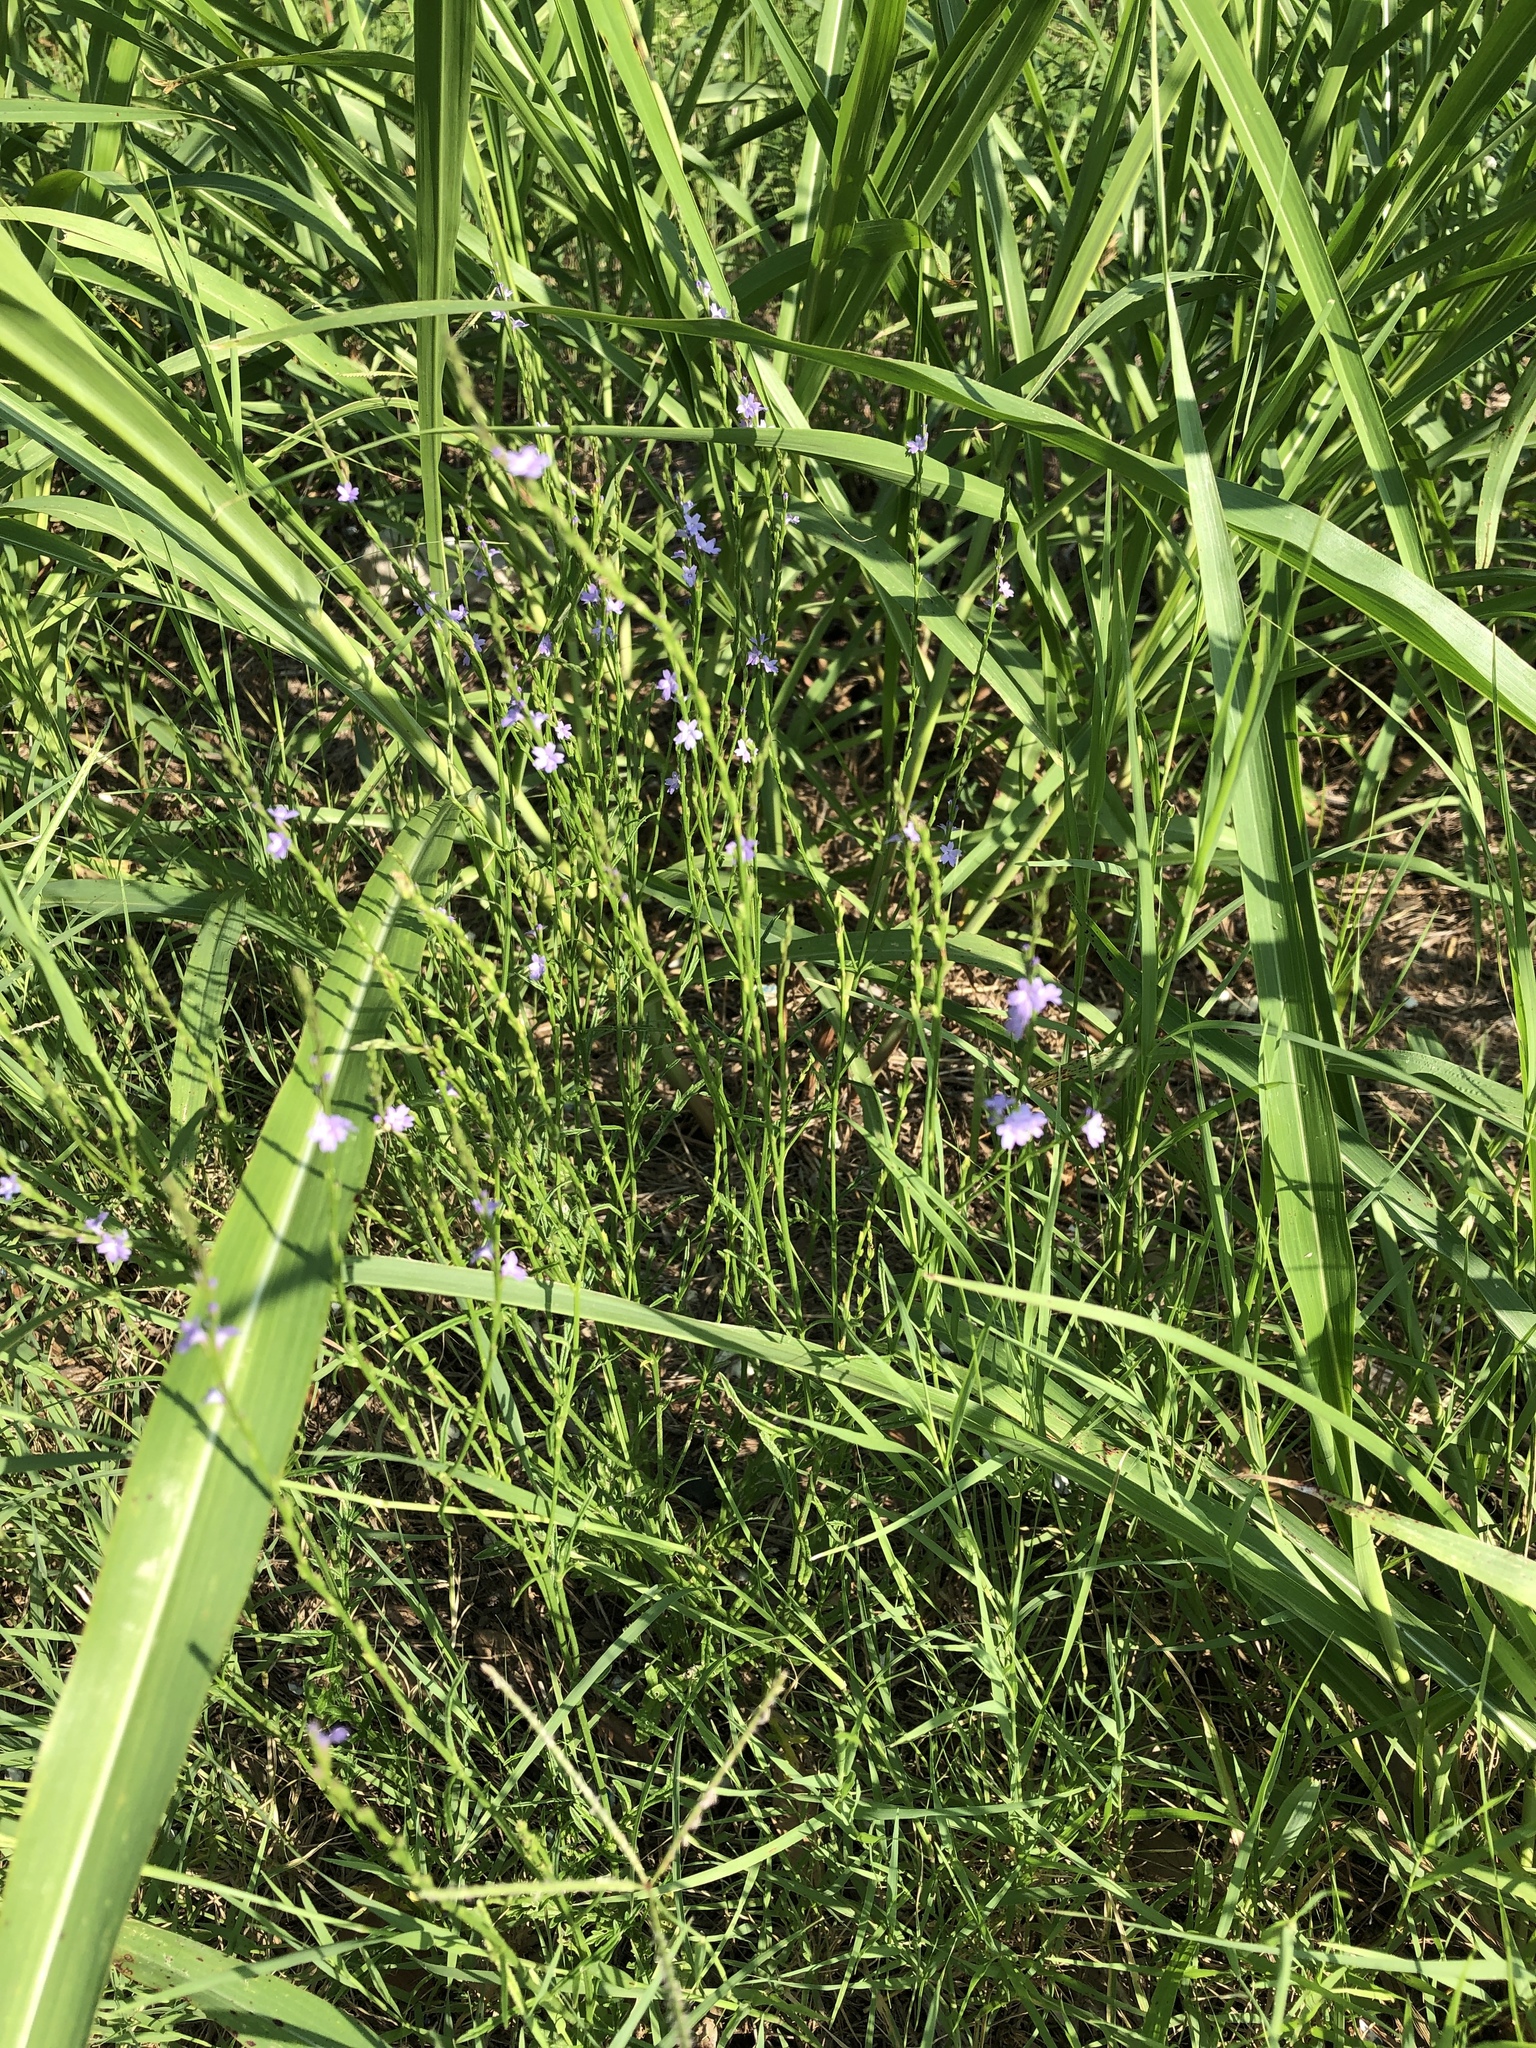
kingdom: Plantae
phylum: Tracheophyta
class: Magnoliopsida
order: Lamiales
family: Verbenaceae
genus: Verbena
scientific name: Verbena halei
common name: Texas vervain
